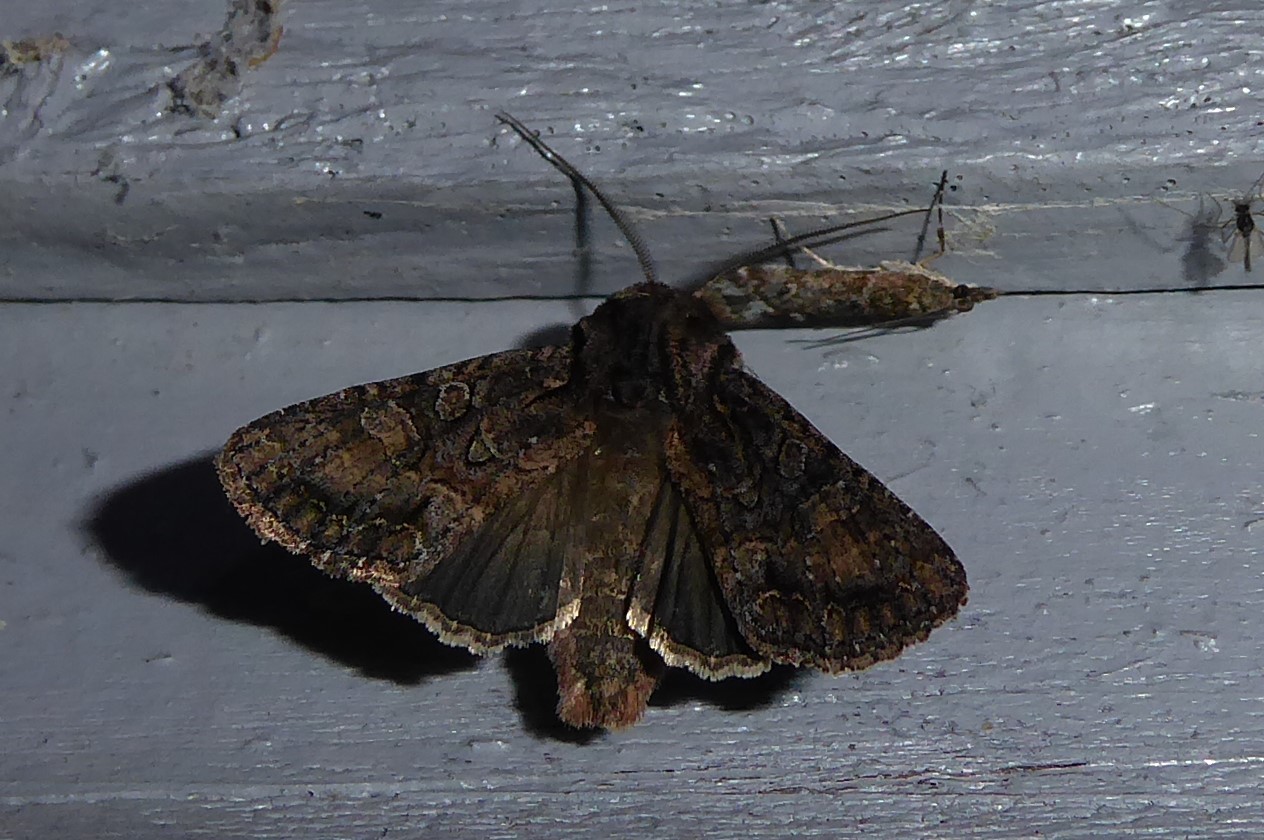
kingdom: Animalia
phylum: Arthropoda
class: Insecta
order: Lepidoptera
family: Noctuidae
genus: Ichneutica
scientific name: Ichneutica mutans
